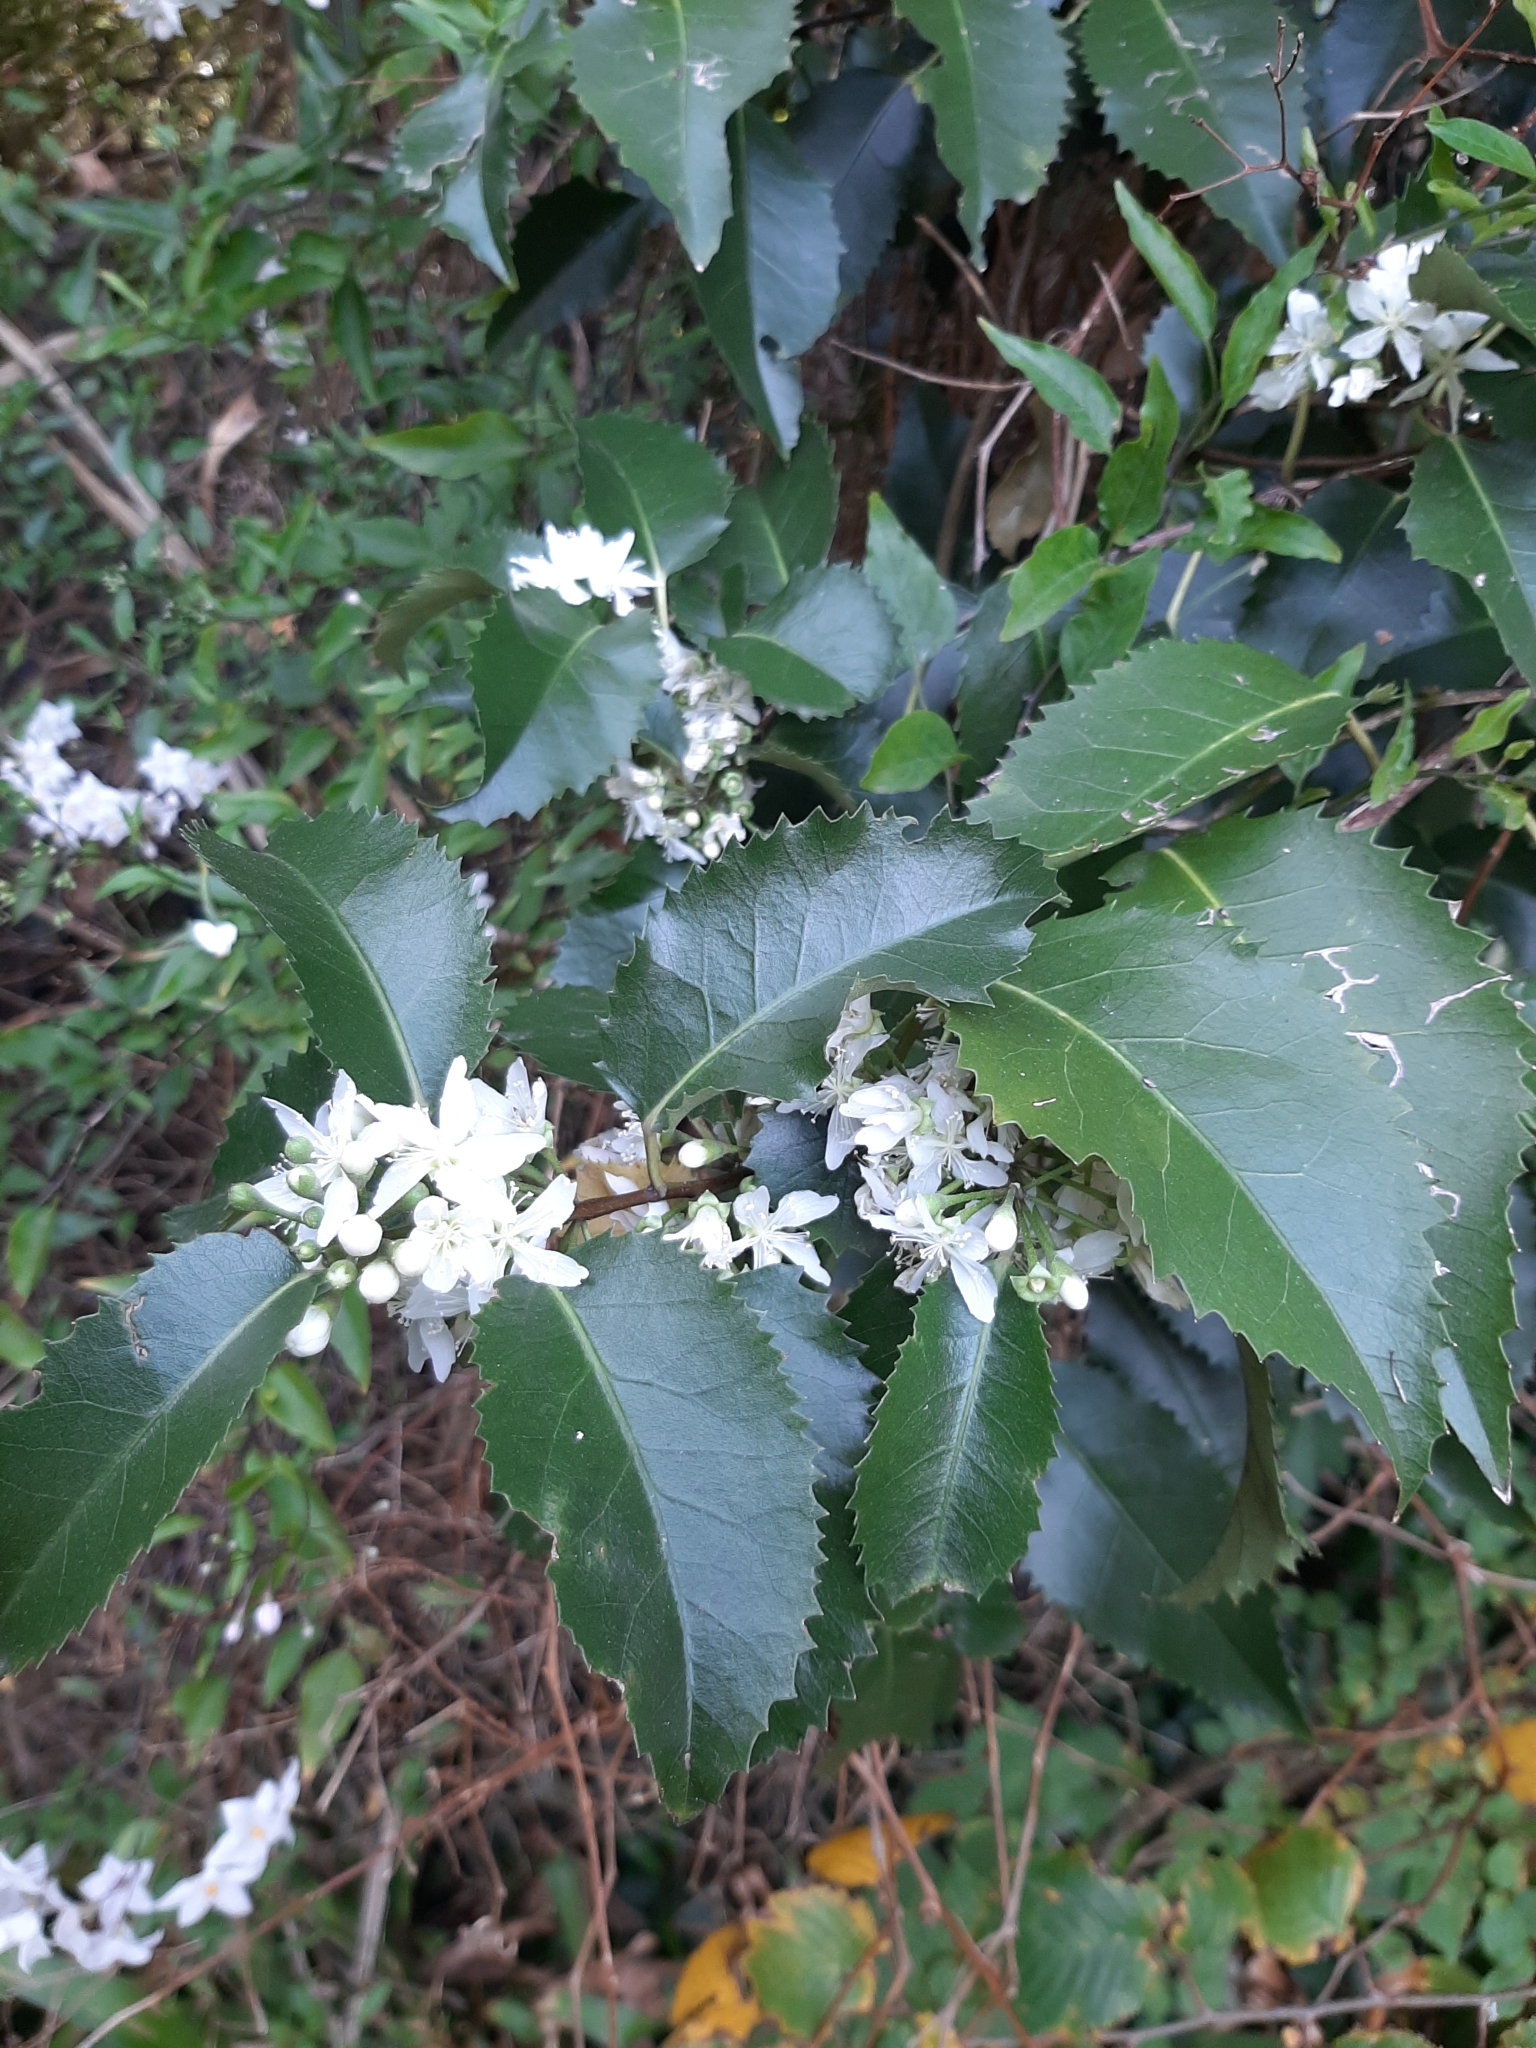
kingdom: Plantae
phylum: Tracheophyta
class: Magnoliopsida
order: Malvales
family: Malvaceae
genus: Hoheria
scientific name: Hoheria populnea
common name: Lacebark
